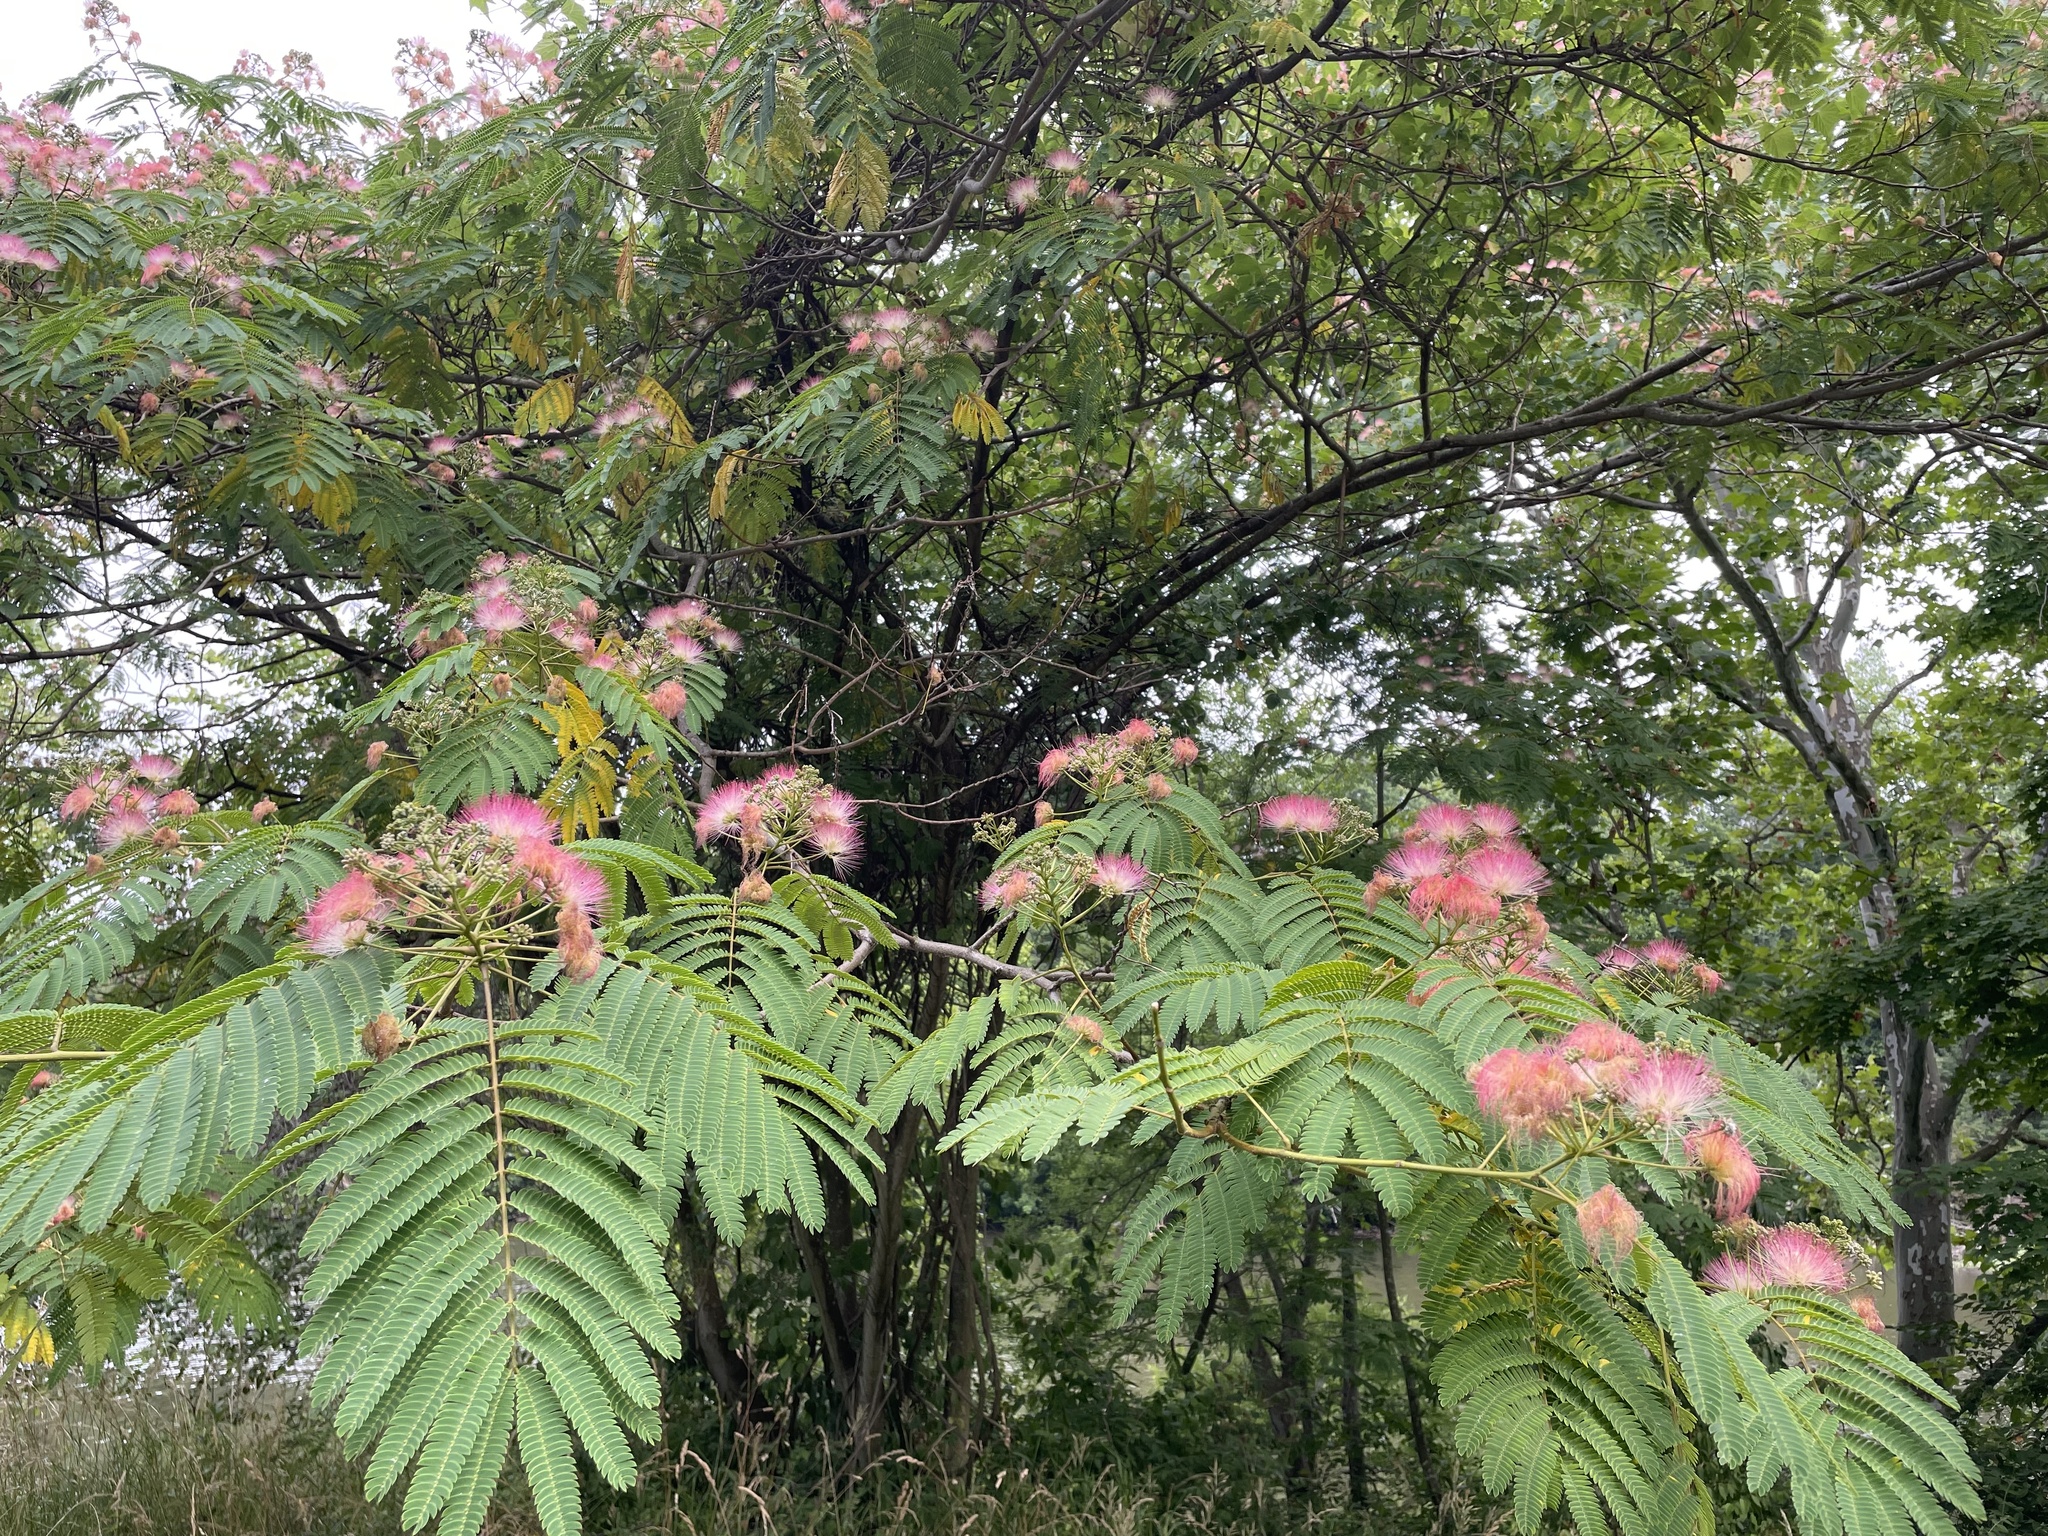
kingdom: Plantae
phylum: Tracheophyta
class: Magnoliopsida
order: Fabales
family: Fabaceae
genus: Albizia
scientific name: Albizia julibrissin
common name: Silktree
